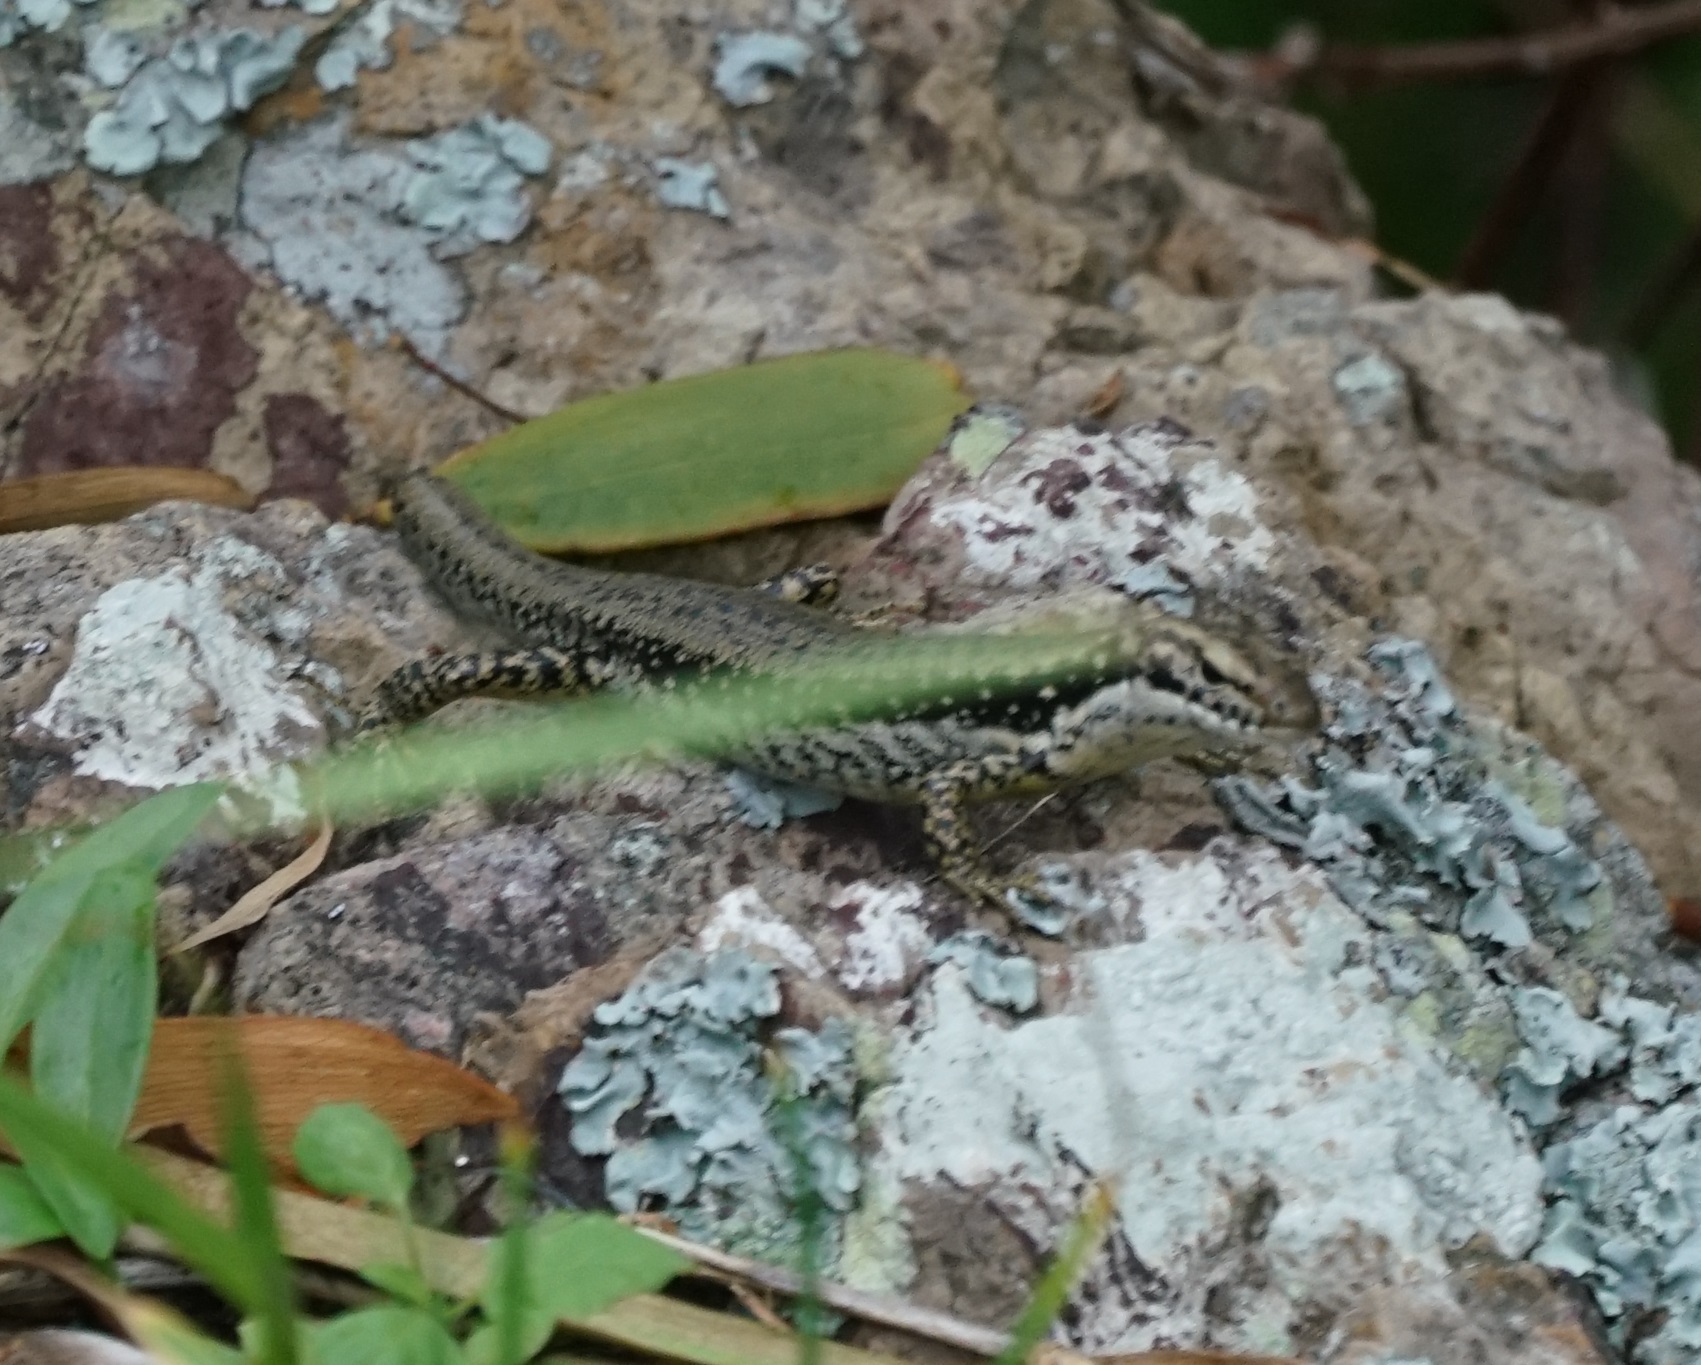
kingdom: Animalia
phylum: Chordata
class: Squamata
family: Scincidae
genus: Eulamprus
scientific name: Eulamprus heatwolei
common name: Warm-temperate water-skink
